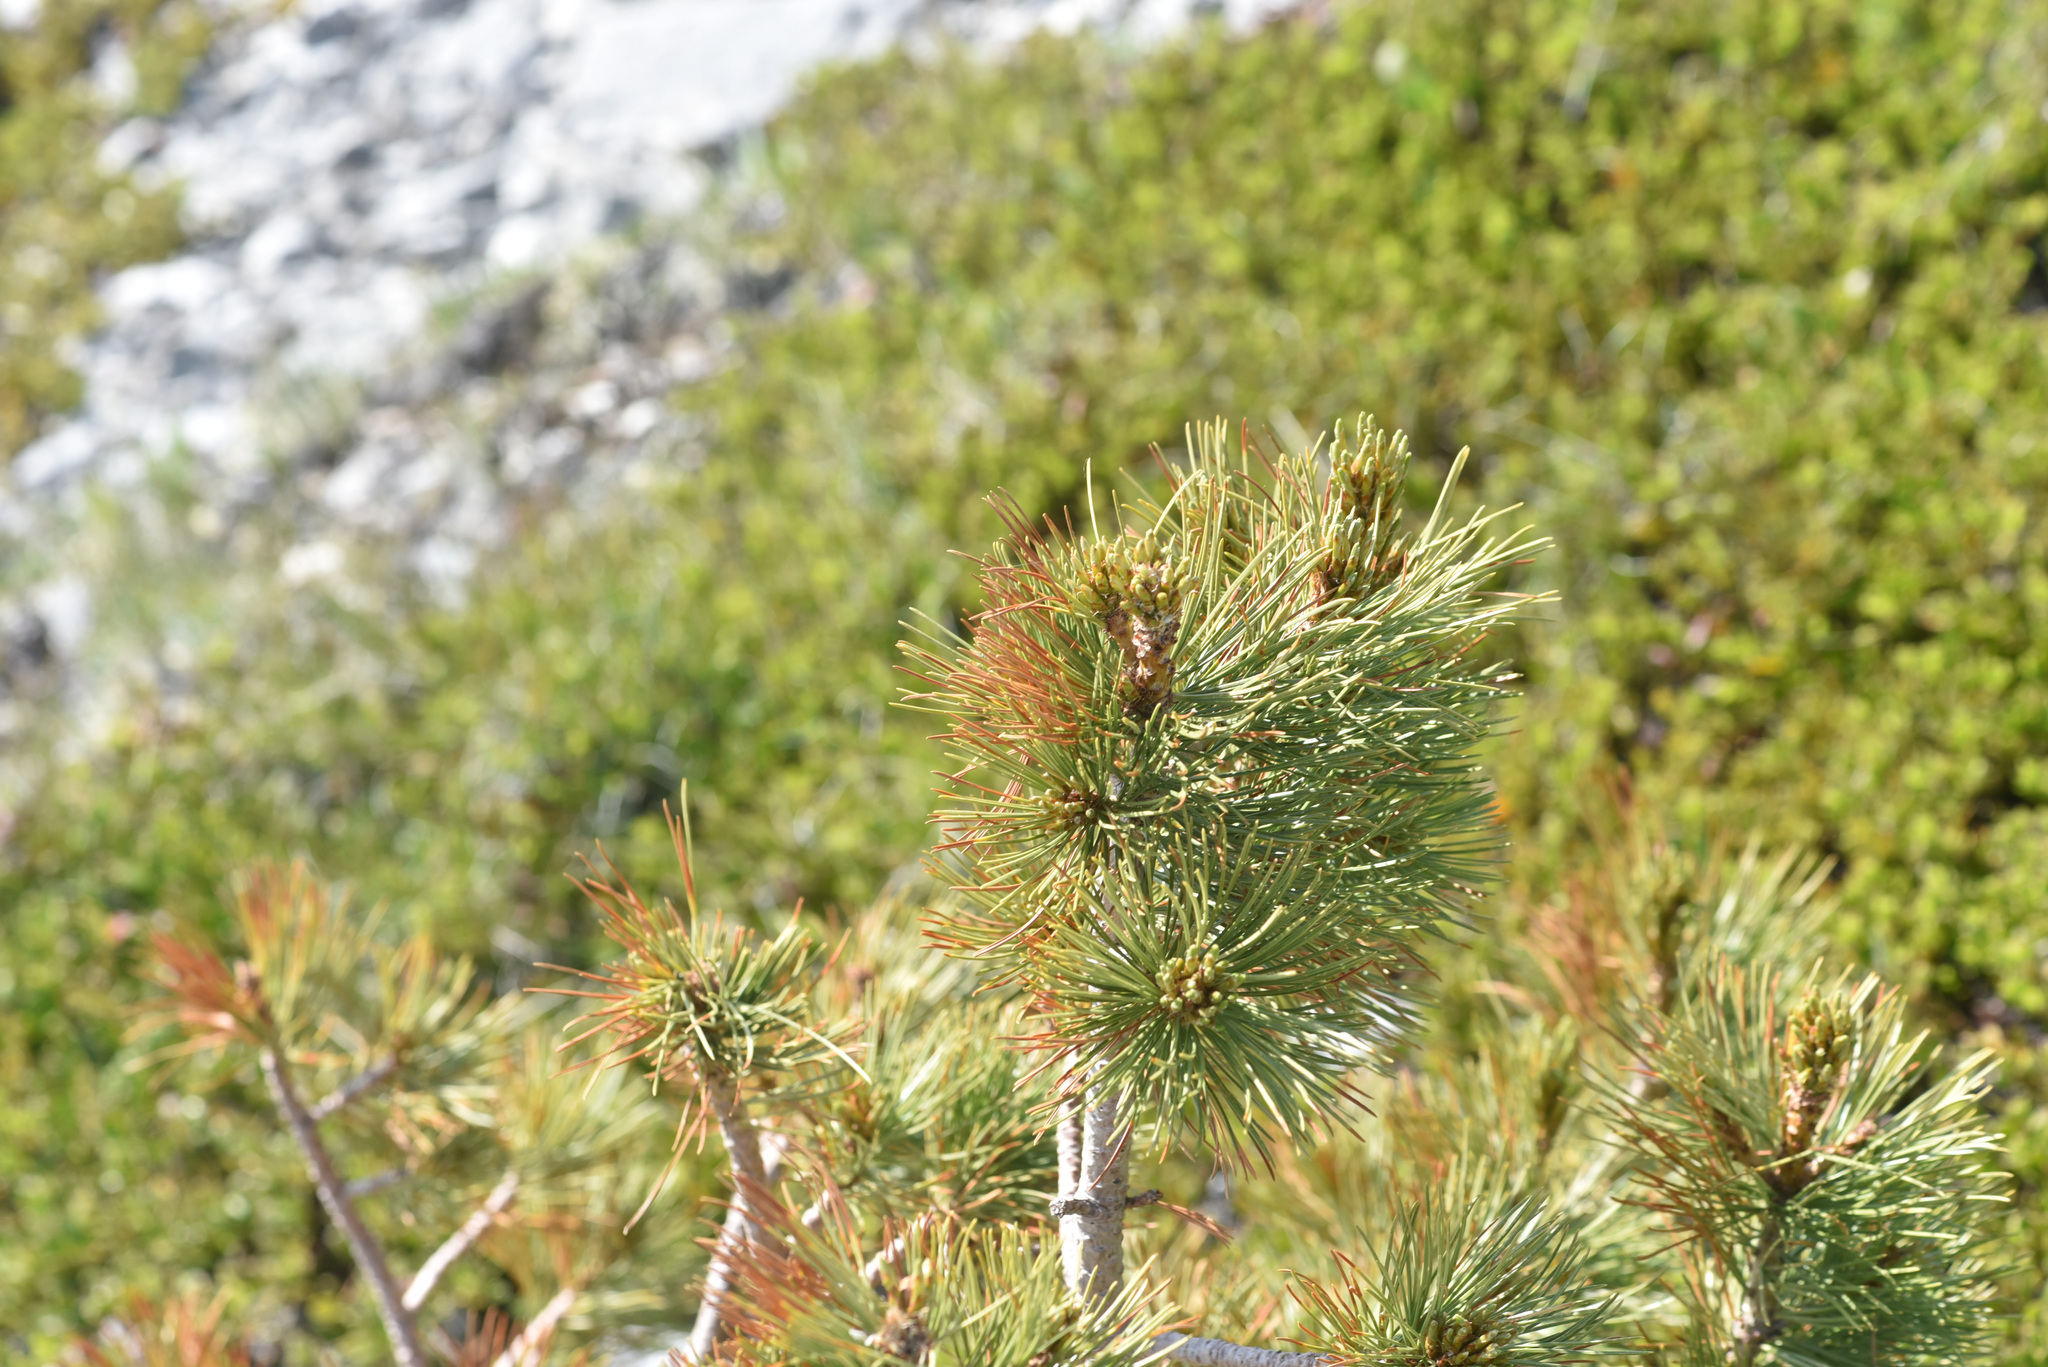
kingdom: Plantae
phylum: Tracheophyta
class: Pinopsida
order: Pinales
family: Pinaceae
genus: Pinus
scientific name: Pinus albicaulis
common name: Whitebark pine
